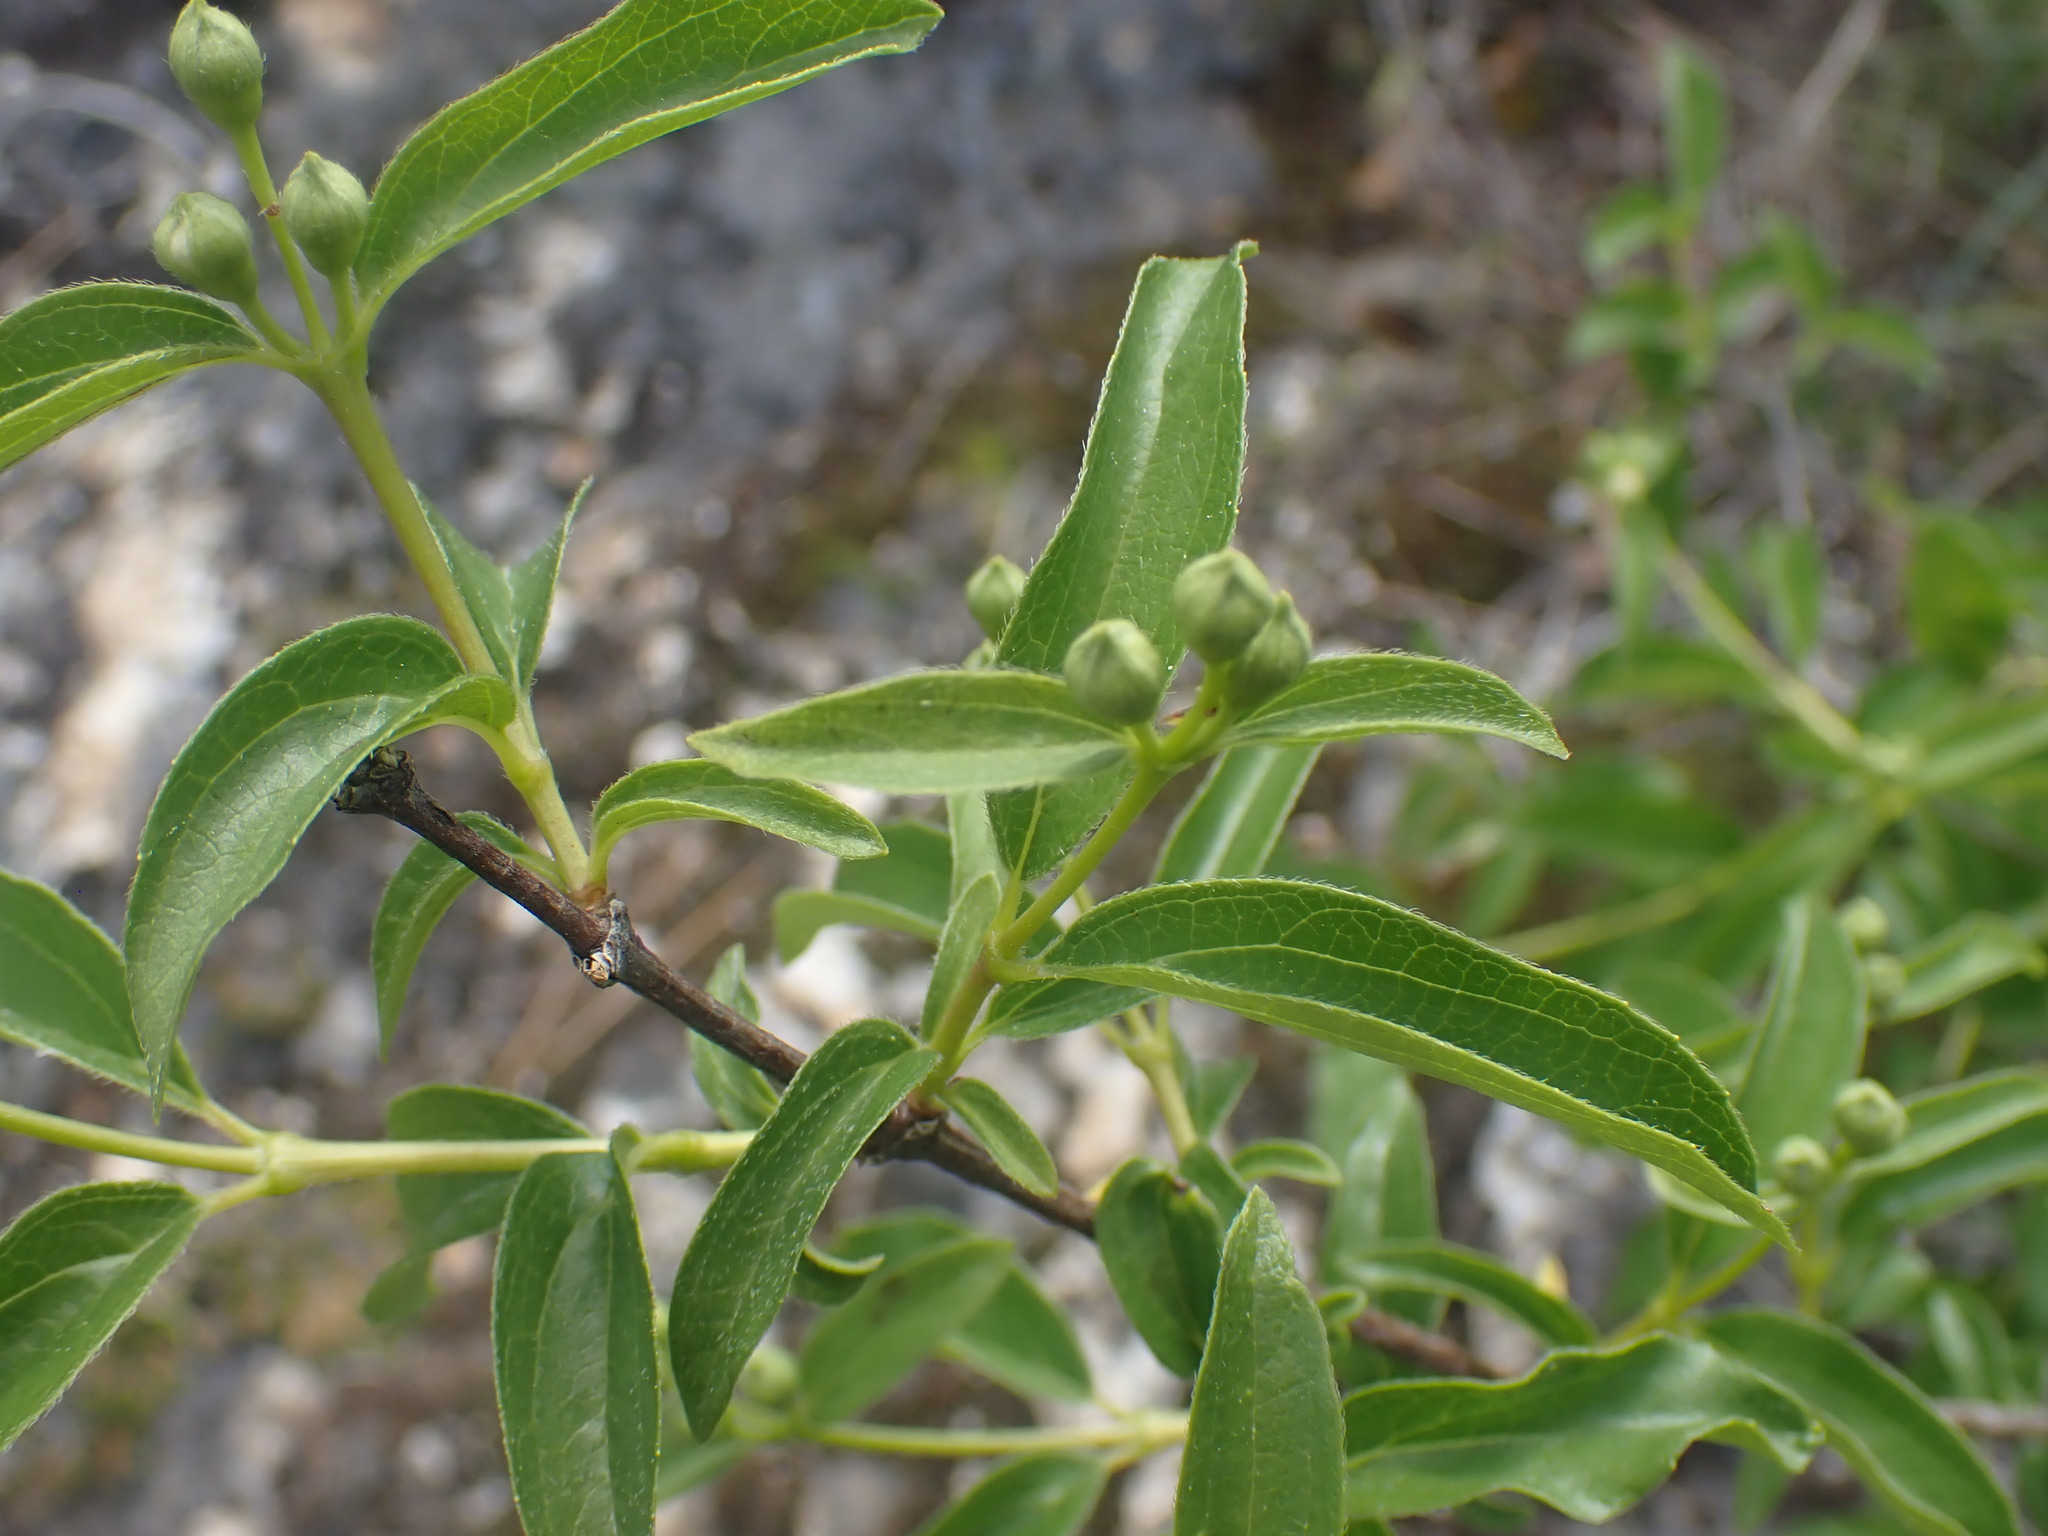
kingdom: Plantae
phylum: Tracheophyta
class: Magnoliopsida
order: Cornales
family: Hydrangeaceae
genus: Philadelphus
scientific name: Philadelphus lewisii
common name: Lewis's mock orange
